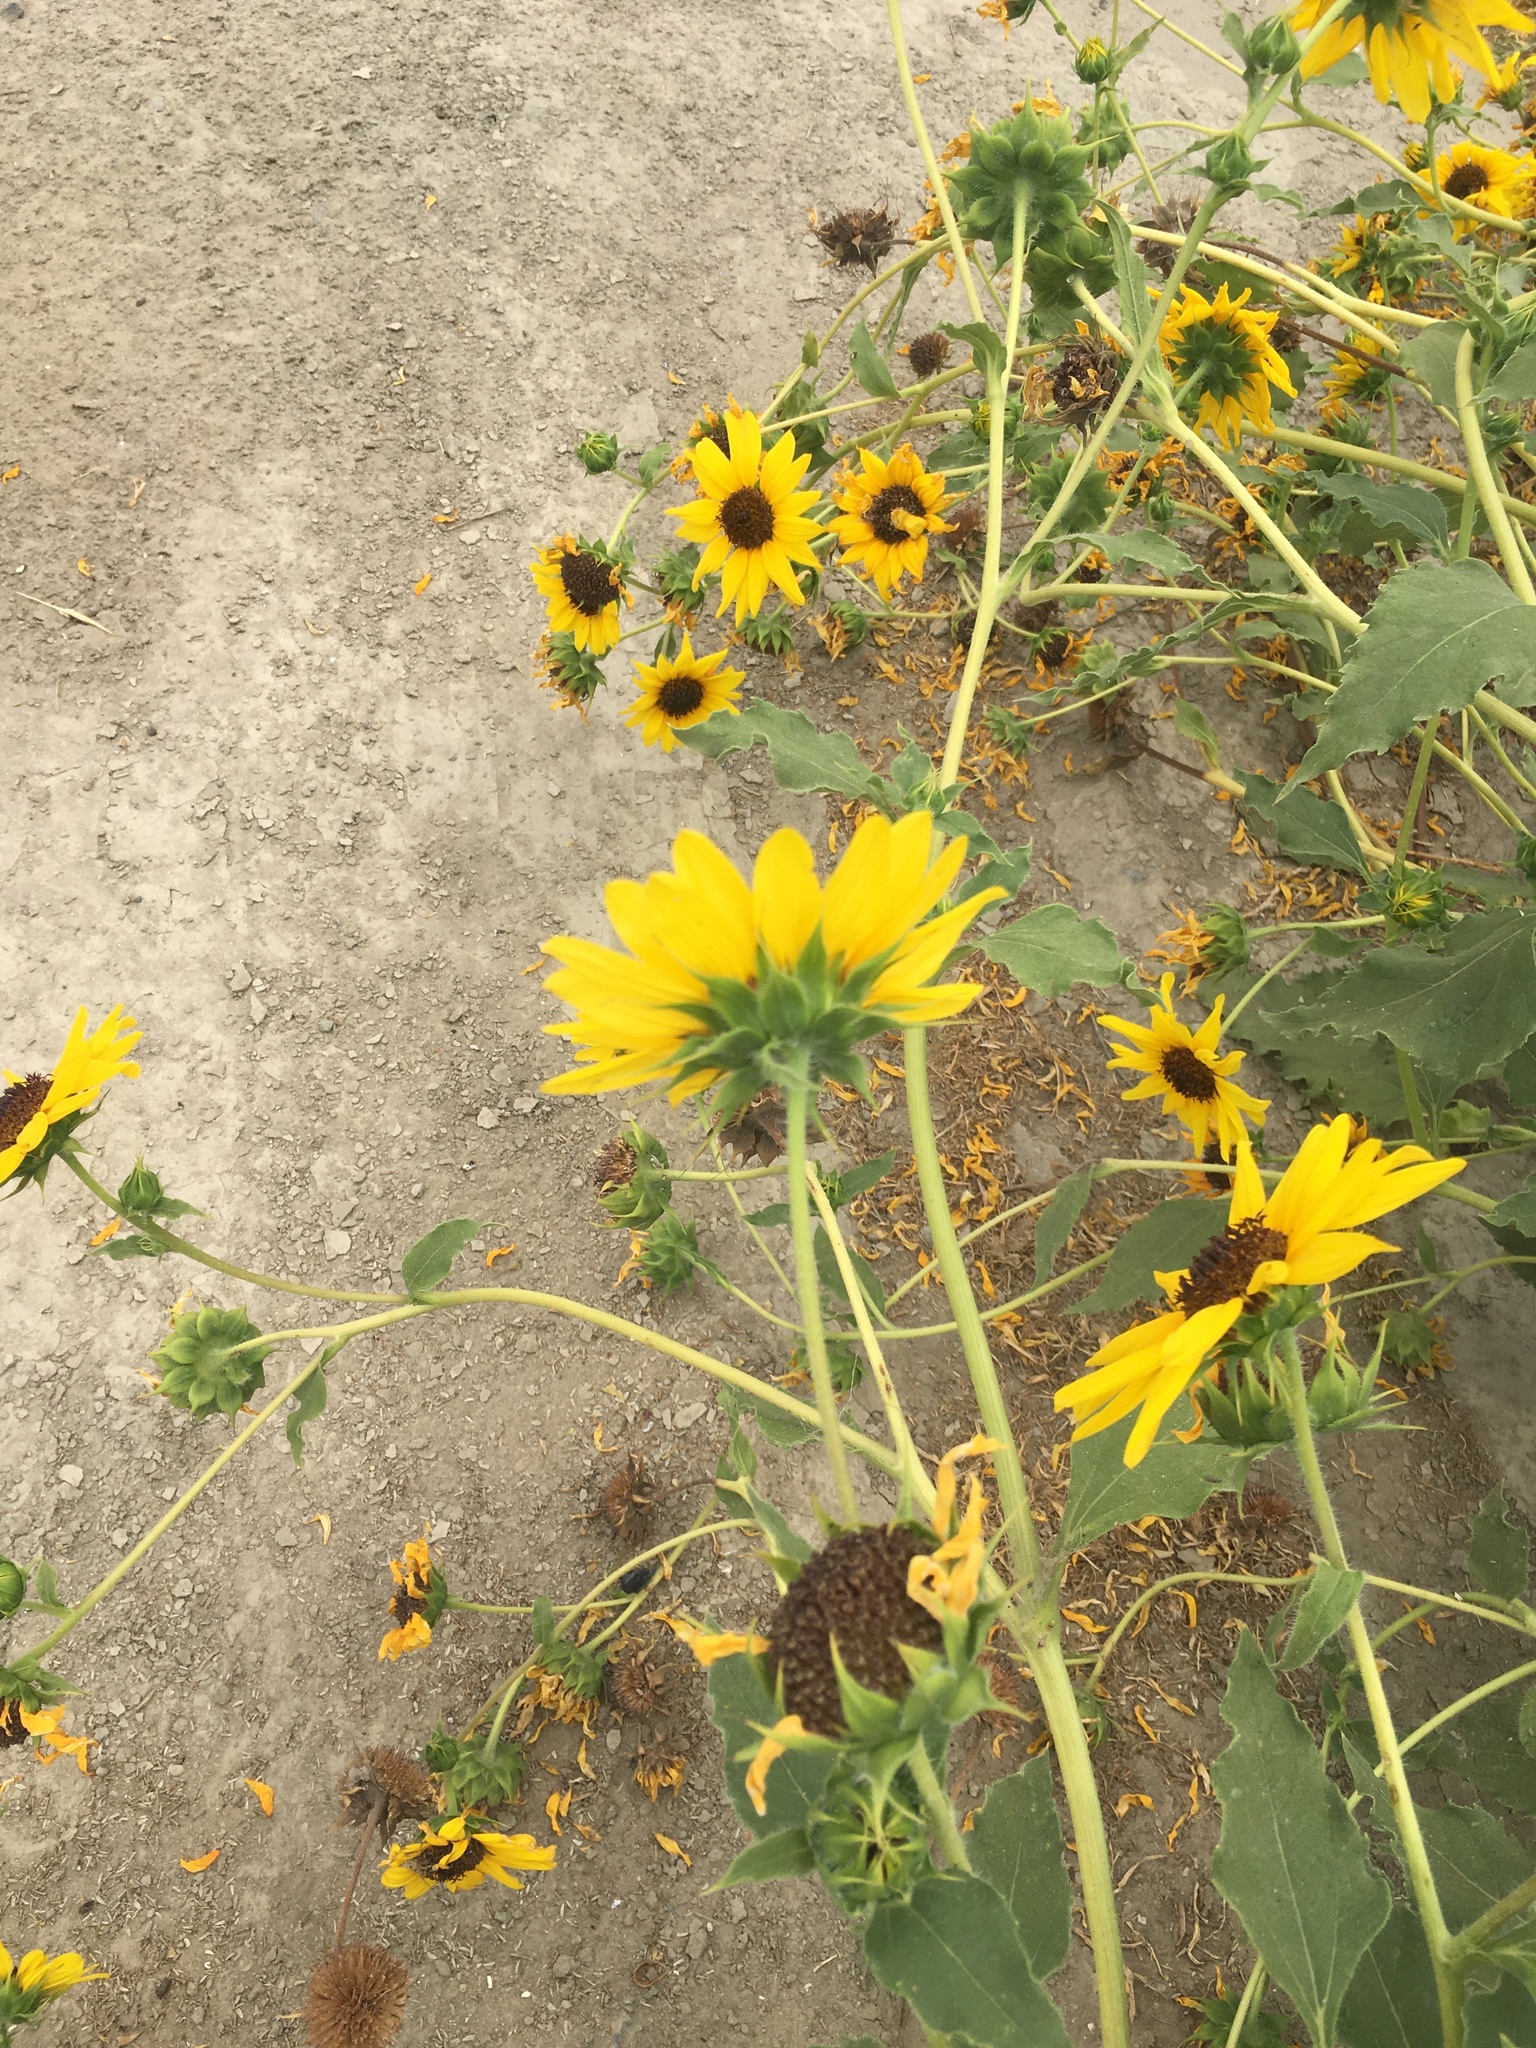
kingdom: Plantae
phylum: Tracheophyta
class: Magnoliopsida
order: Asterales
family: Asteraceae
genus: Helianthus
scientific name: Helianthus annuus
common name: Sunflower
